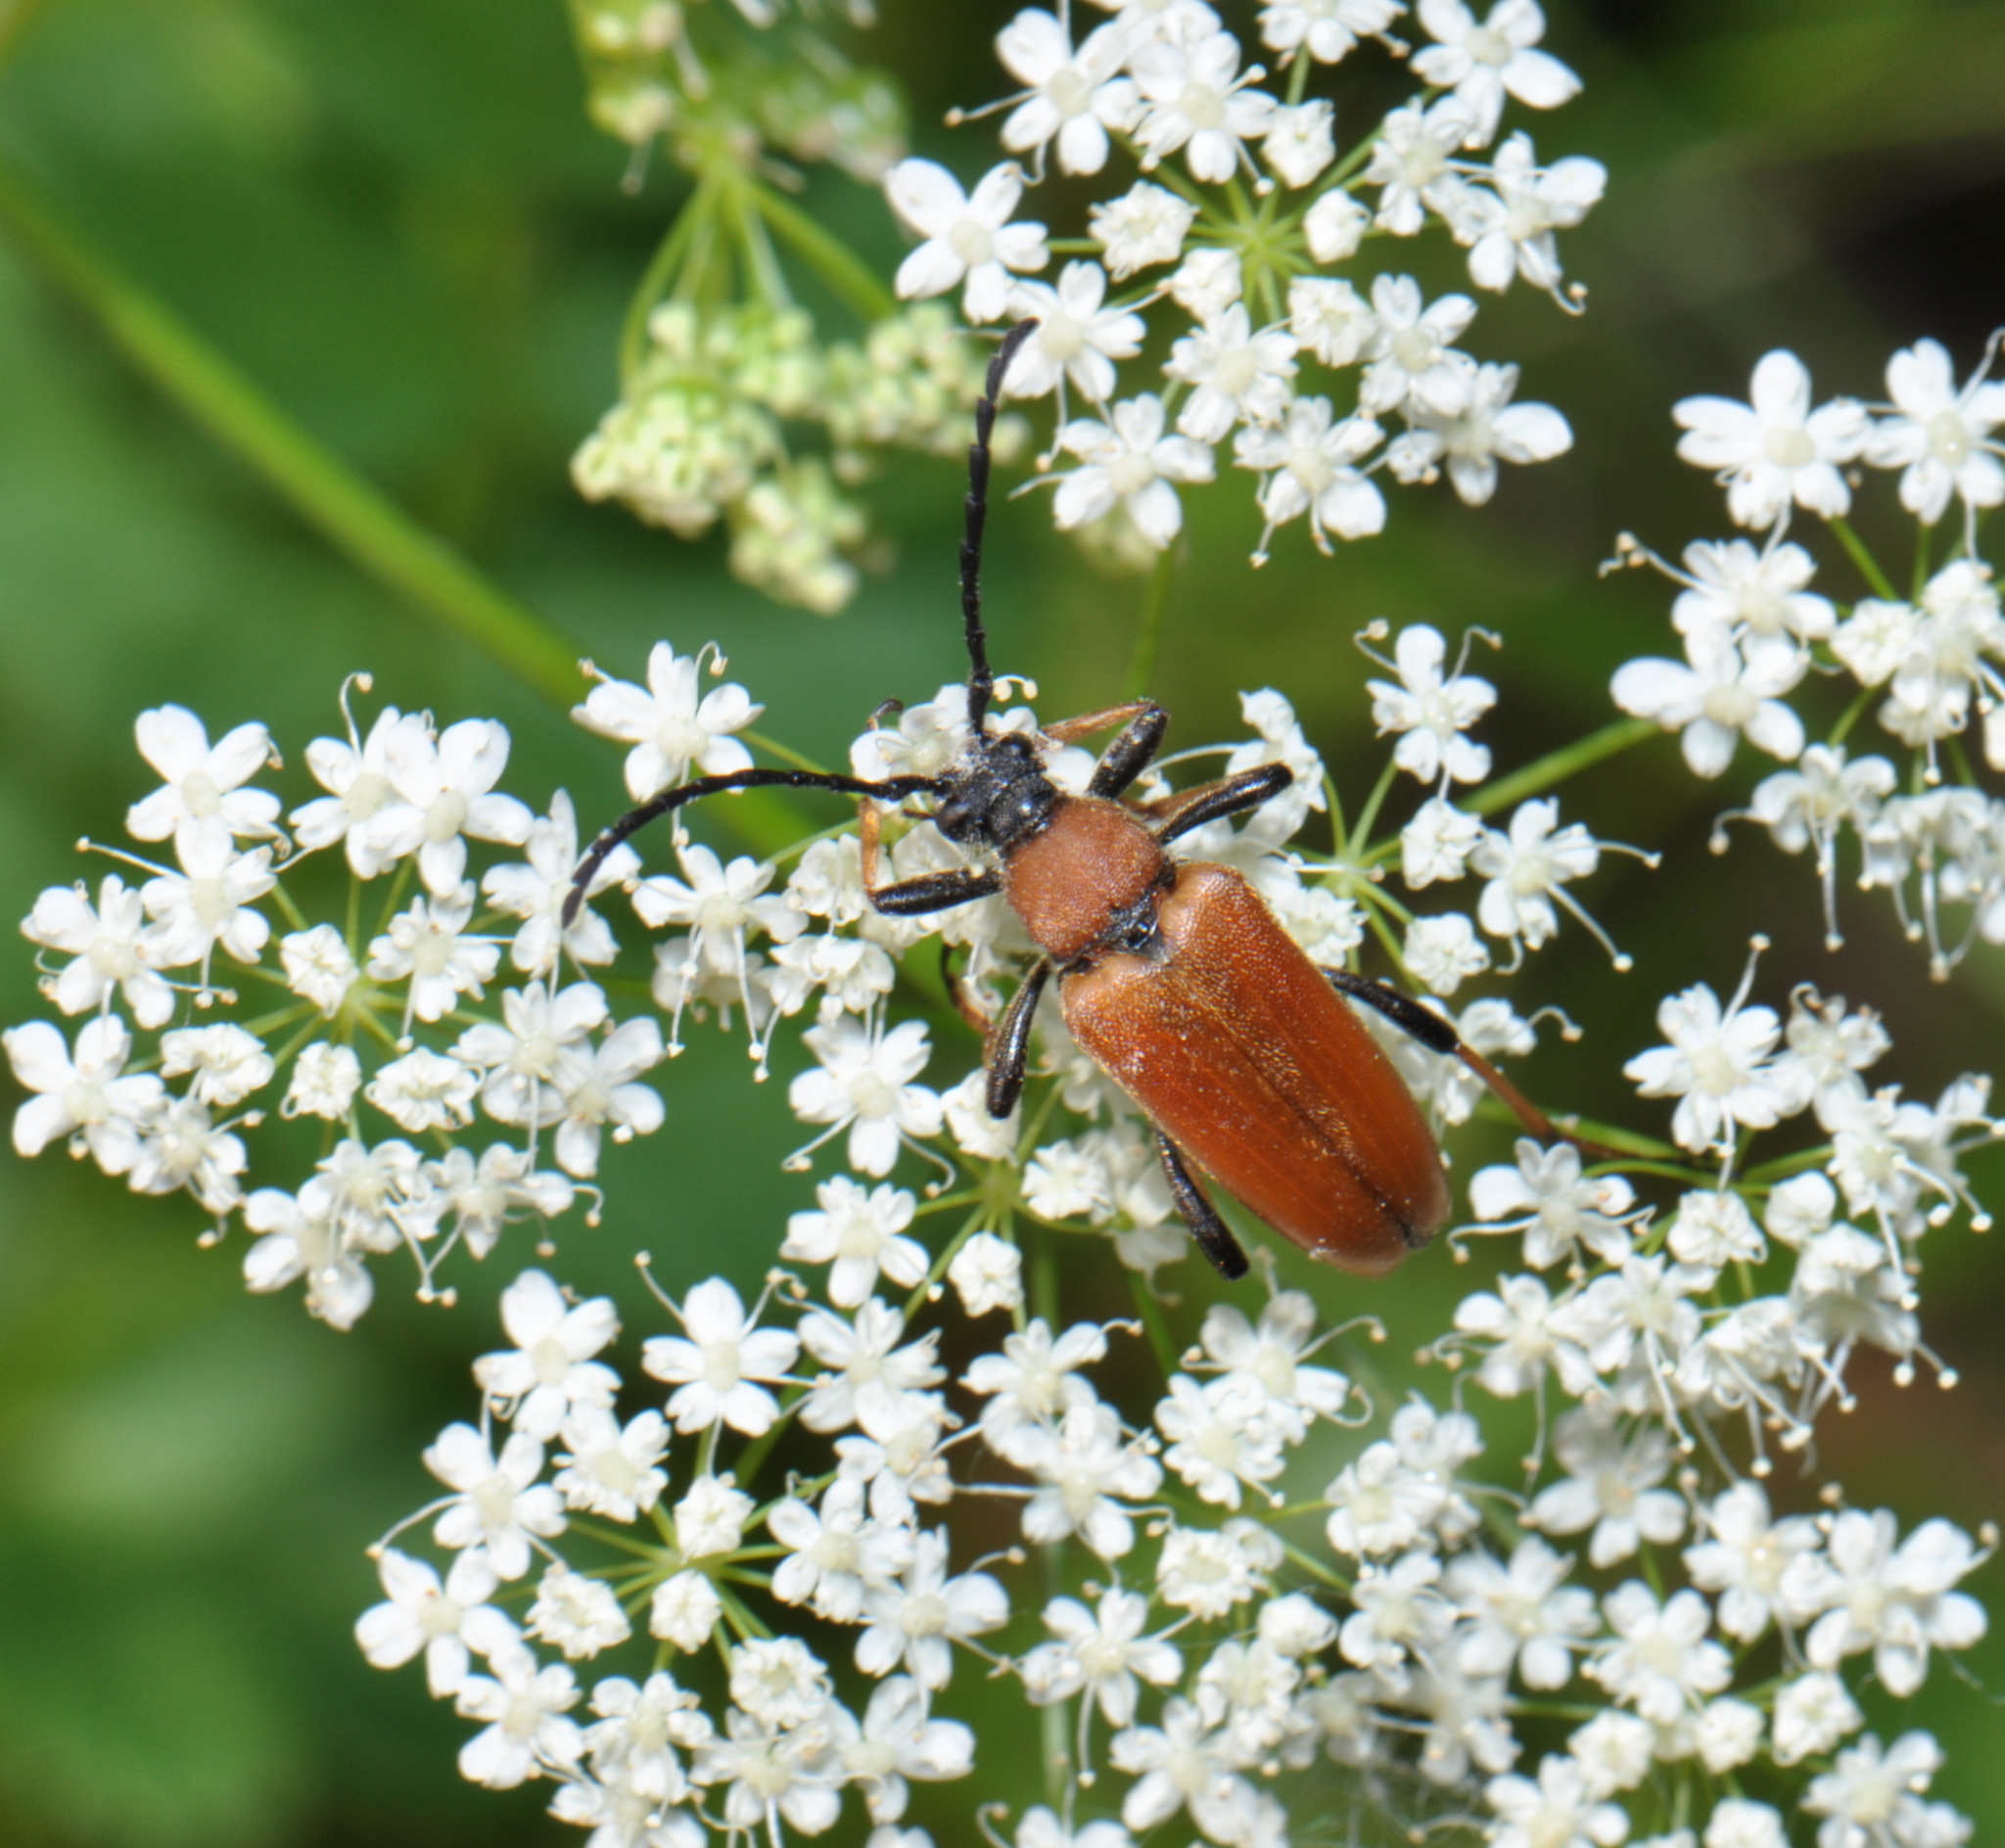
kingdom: Animalia
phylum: Arthropoda
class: Insecta
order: Coleoptera
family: Cerambycidae
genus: Stictoleptura
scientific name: Stictoleptura rubra
